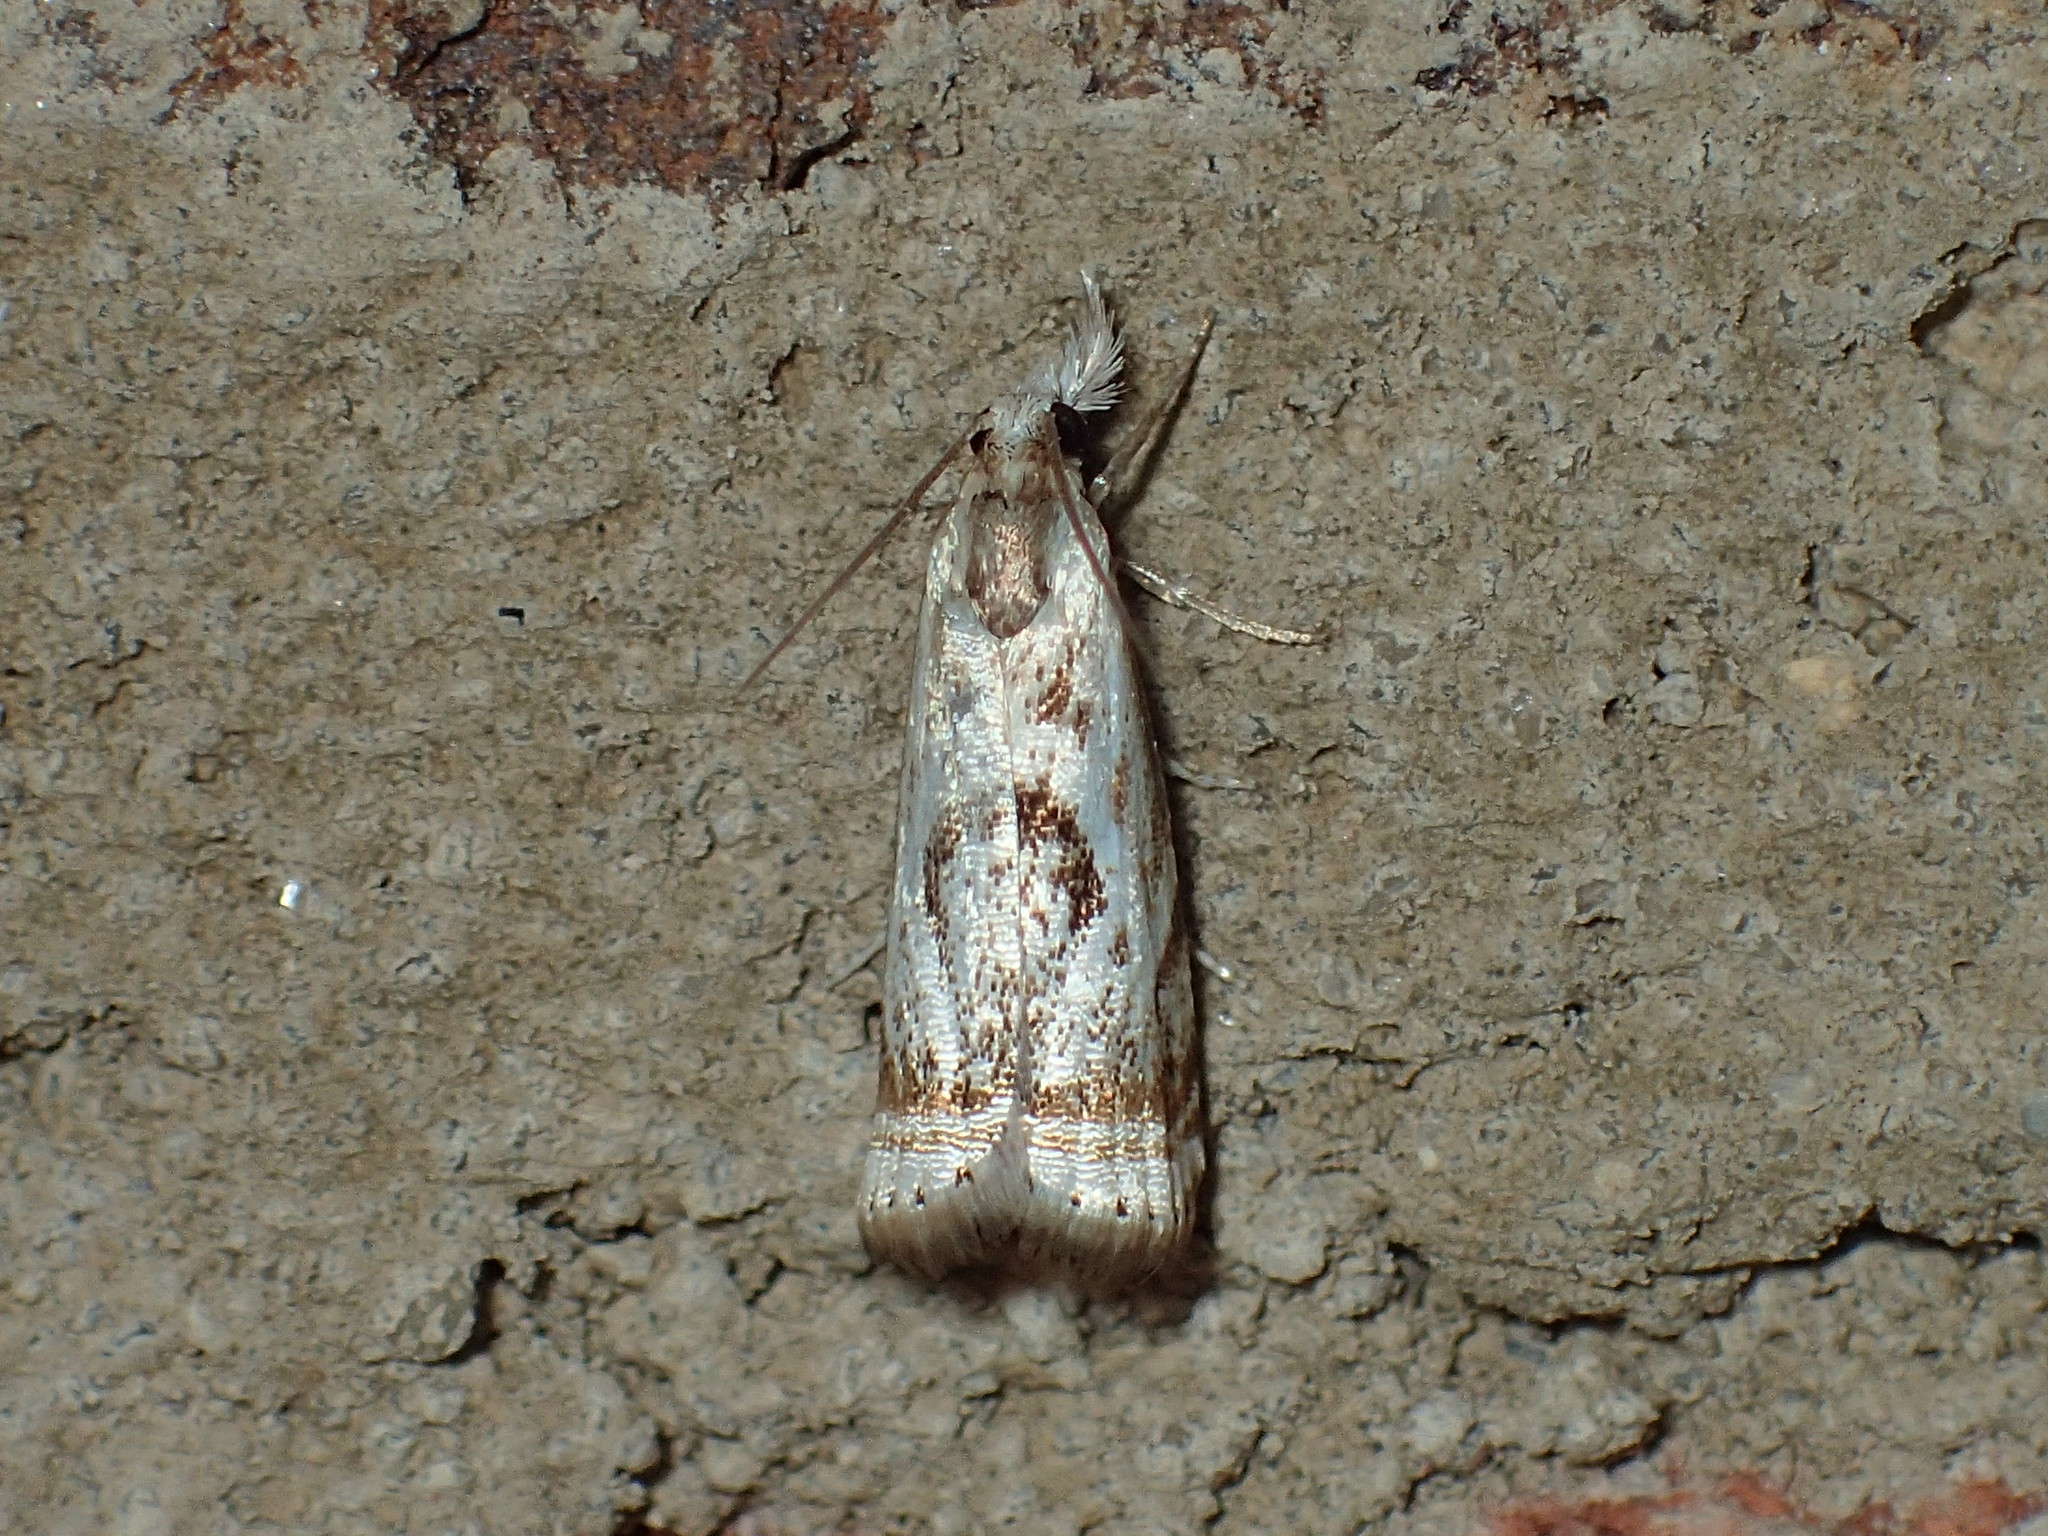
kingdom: Animalia
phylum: Arthropoda
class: Insecta
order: Lepidoptera
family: Crambidae
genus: Microcrambus
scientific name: Microcrambus elegans
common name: Elegant grass-veneer
